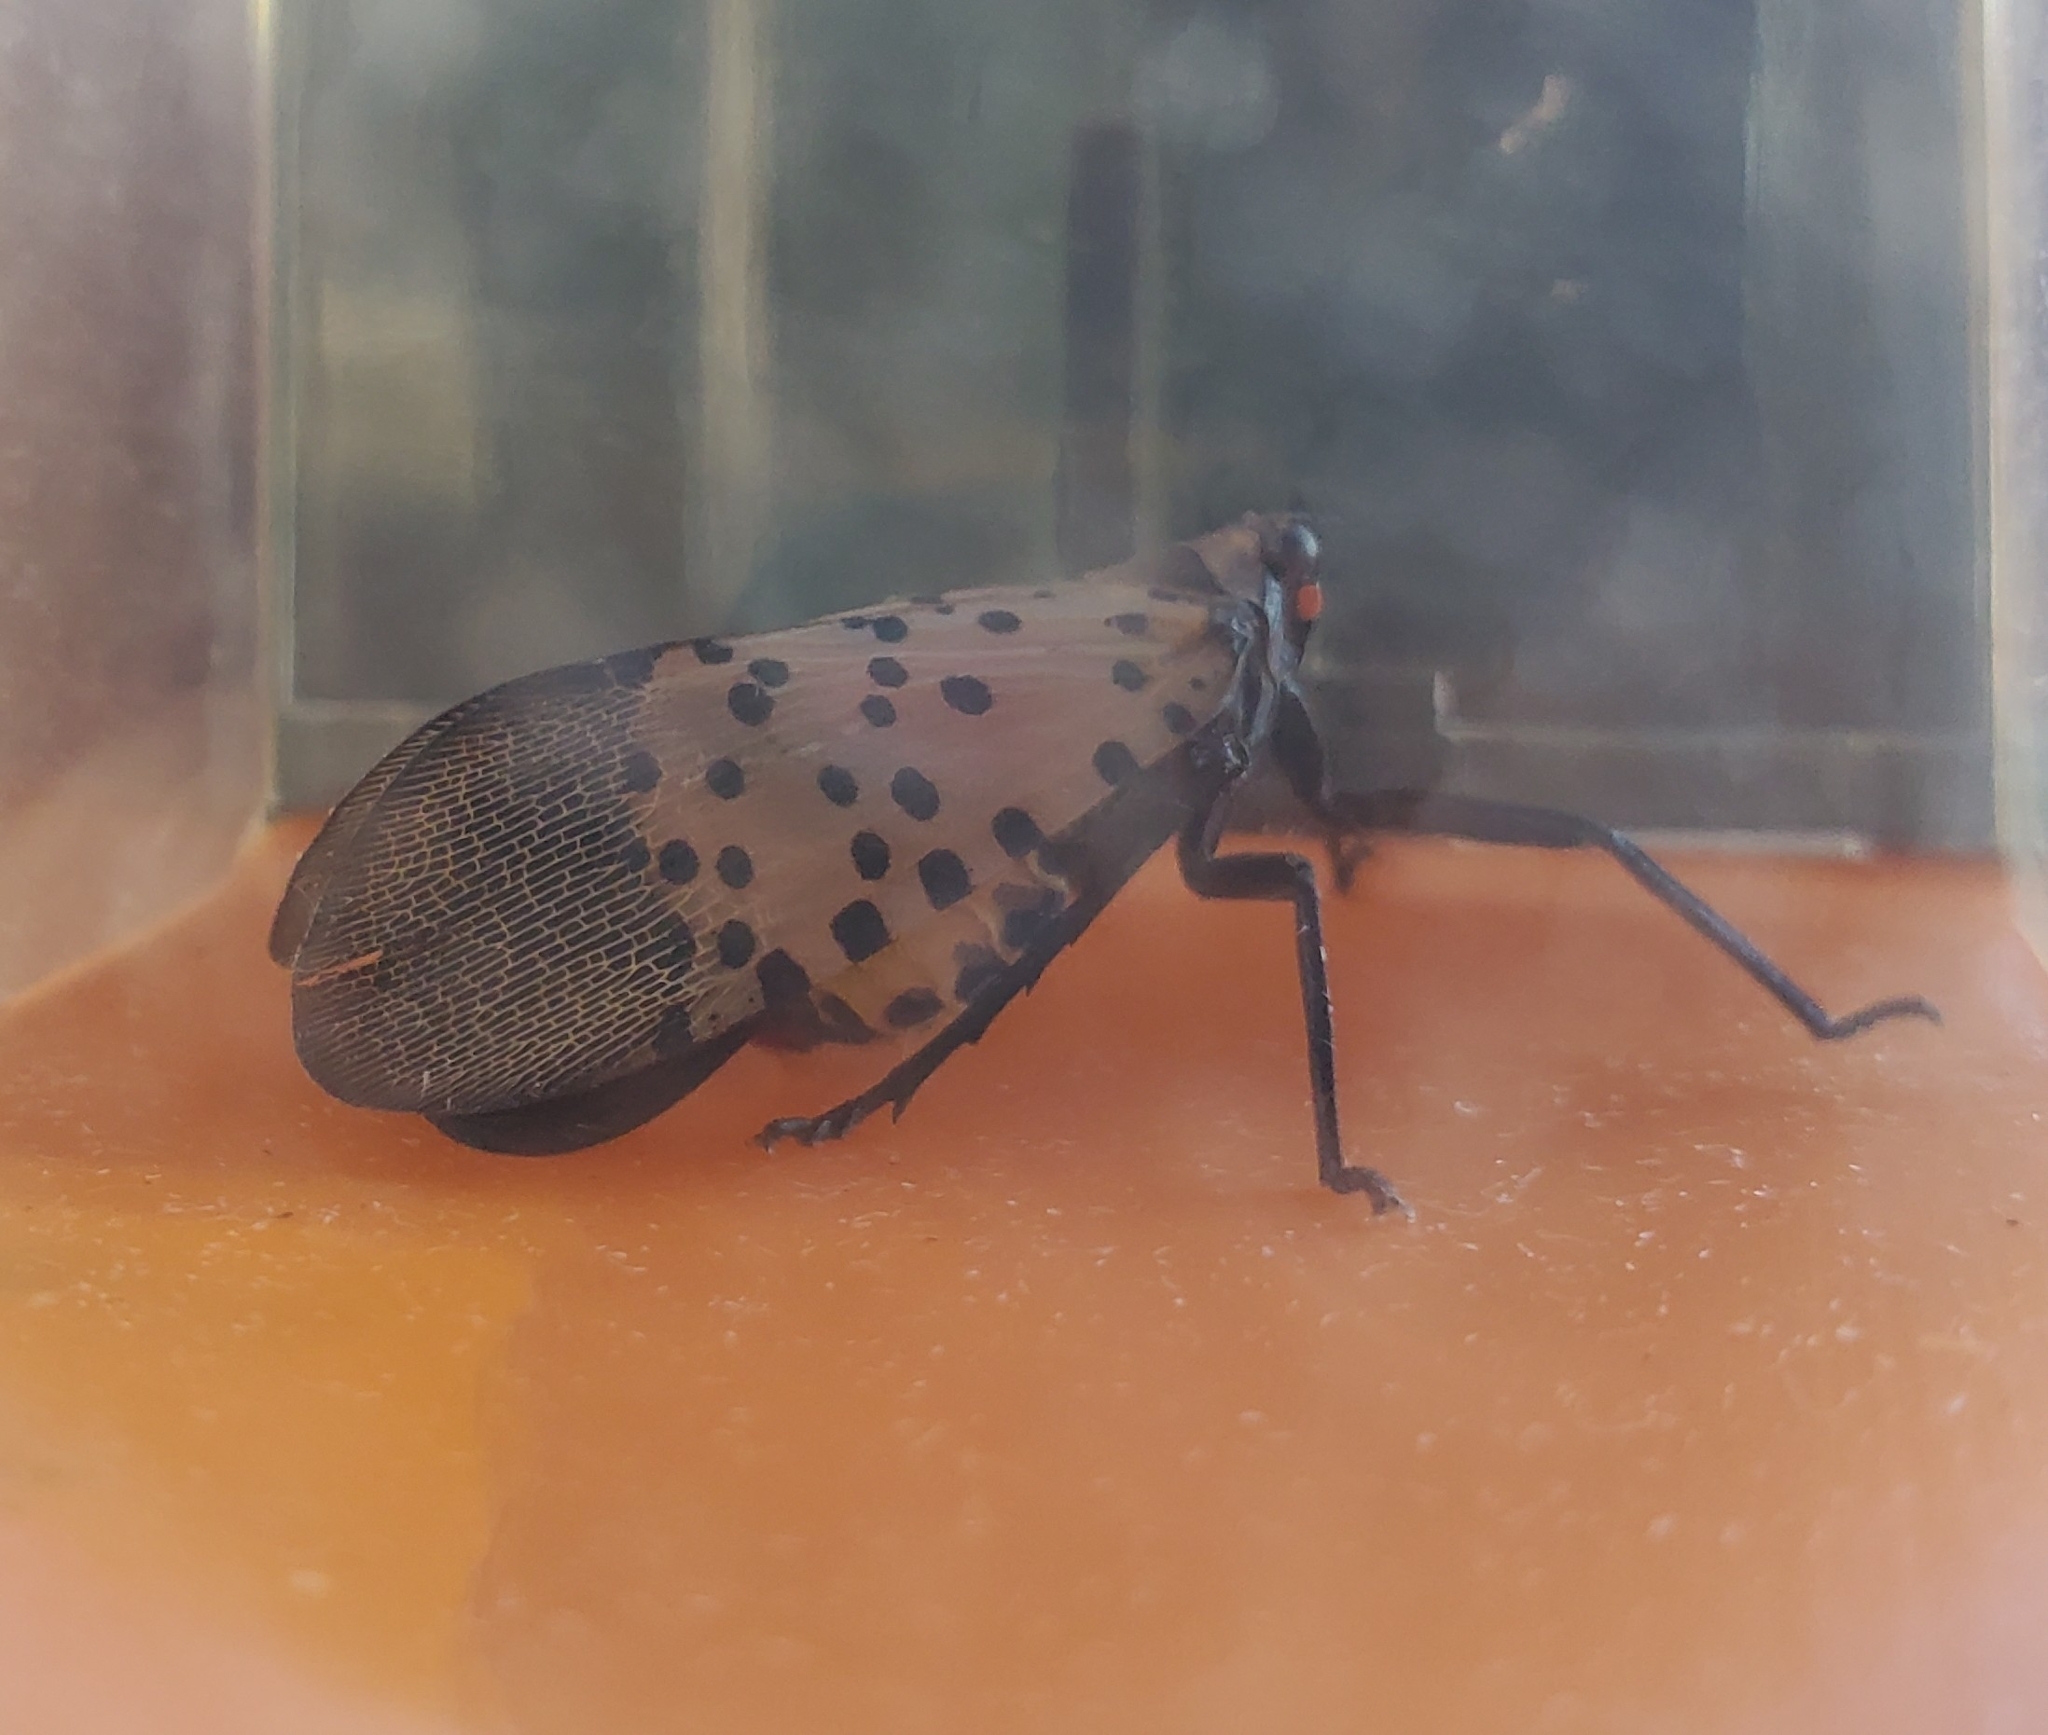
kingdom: Animalia
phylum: Arthropoda
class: Insecta
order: Hemiptera
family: Fulgoridae
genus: Lycorma
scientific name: Lycorma delicatula
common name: Spotted lanternfly
